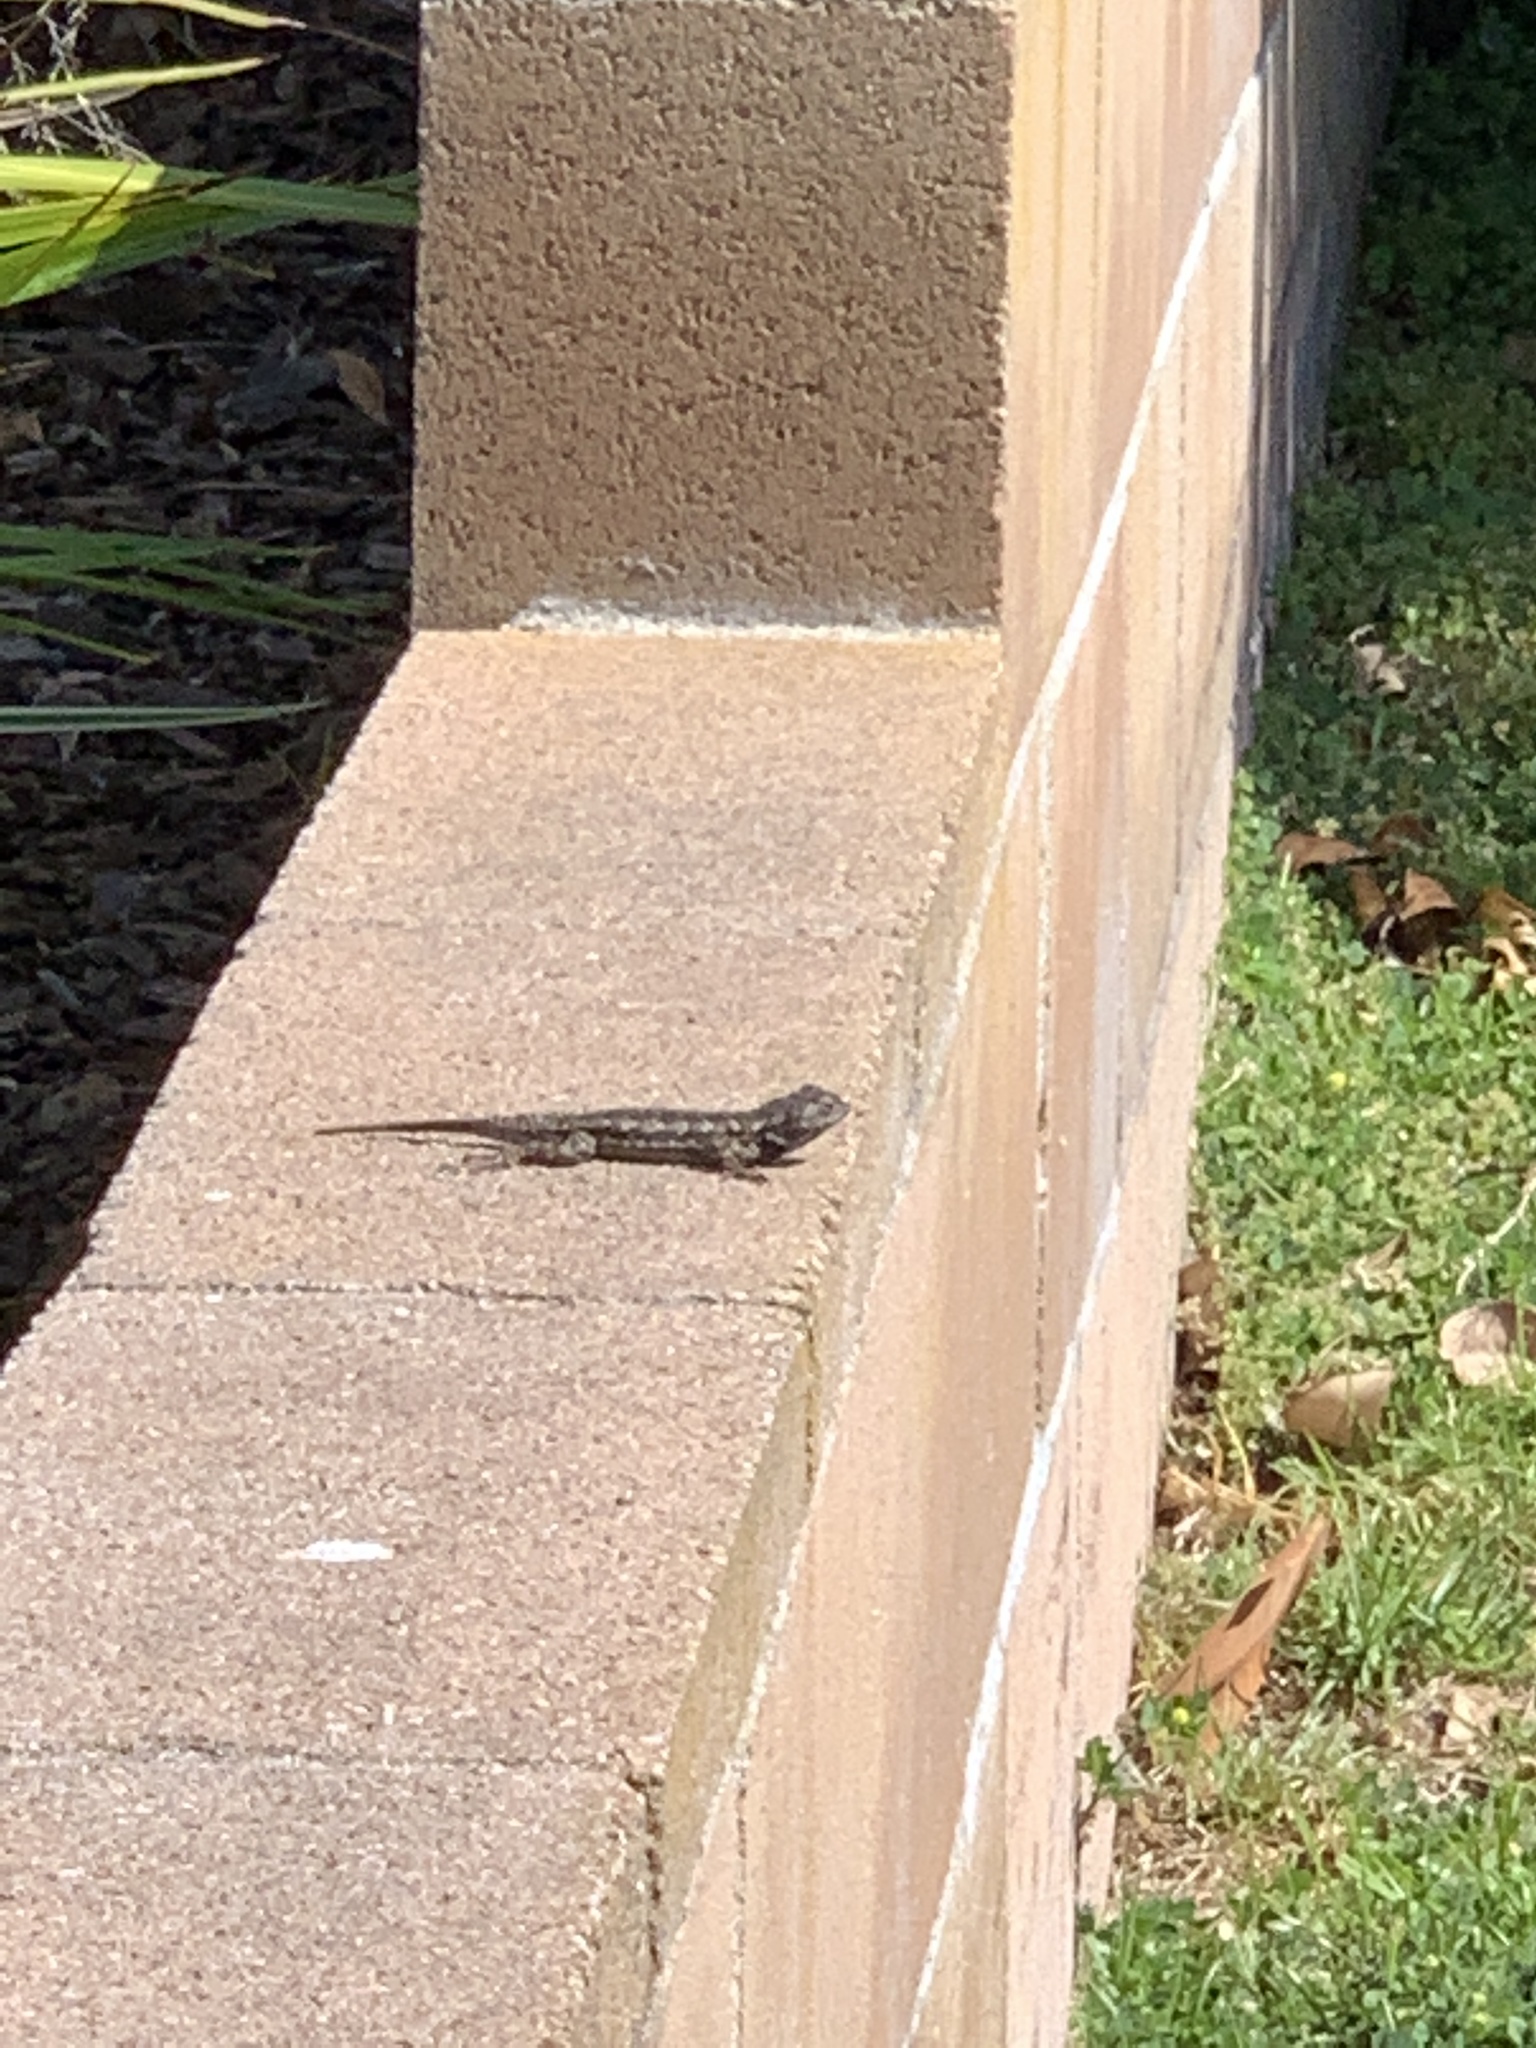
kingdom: Animalia
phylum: Chordata
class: Squamata
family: Phrynosomatidae
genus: Sceloporus
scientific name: Sceloporus occidentalis
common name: Western fence lizard
